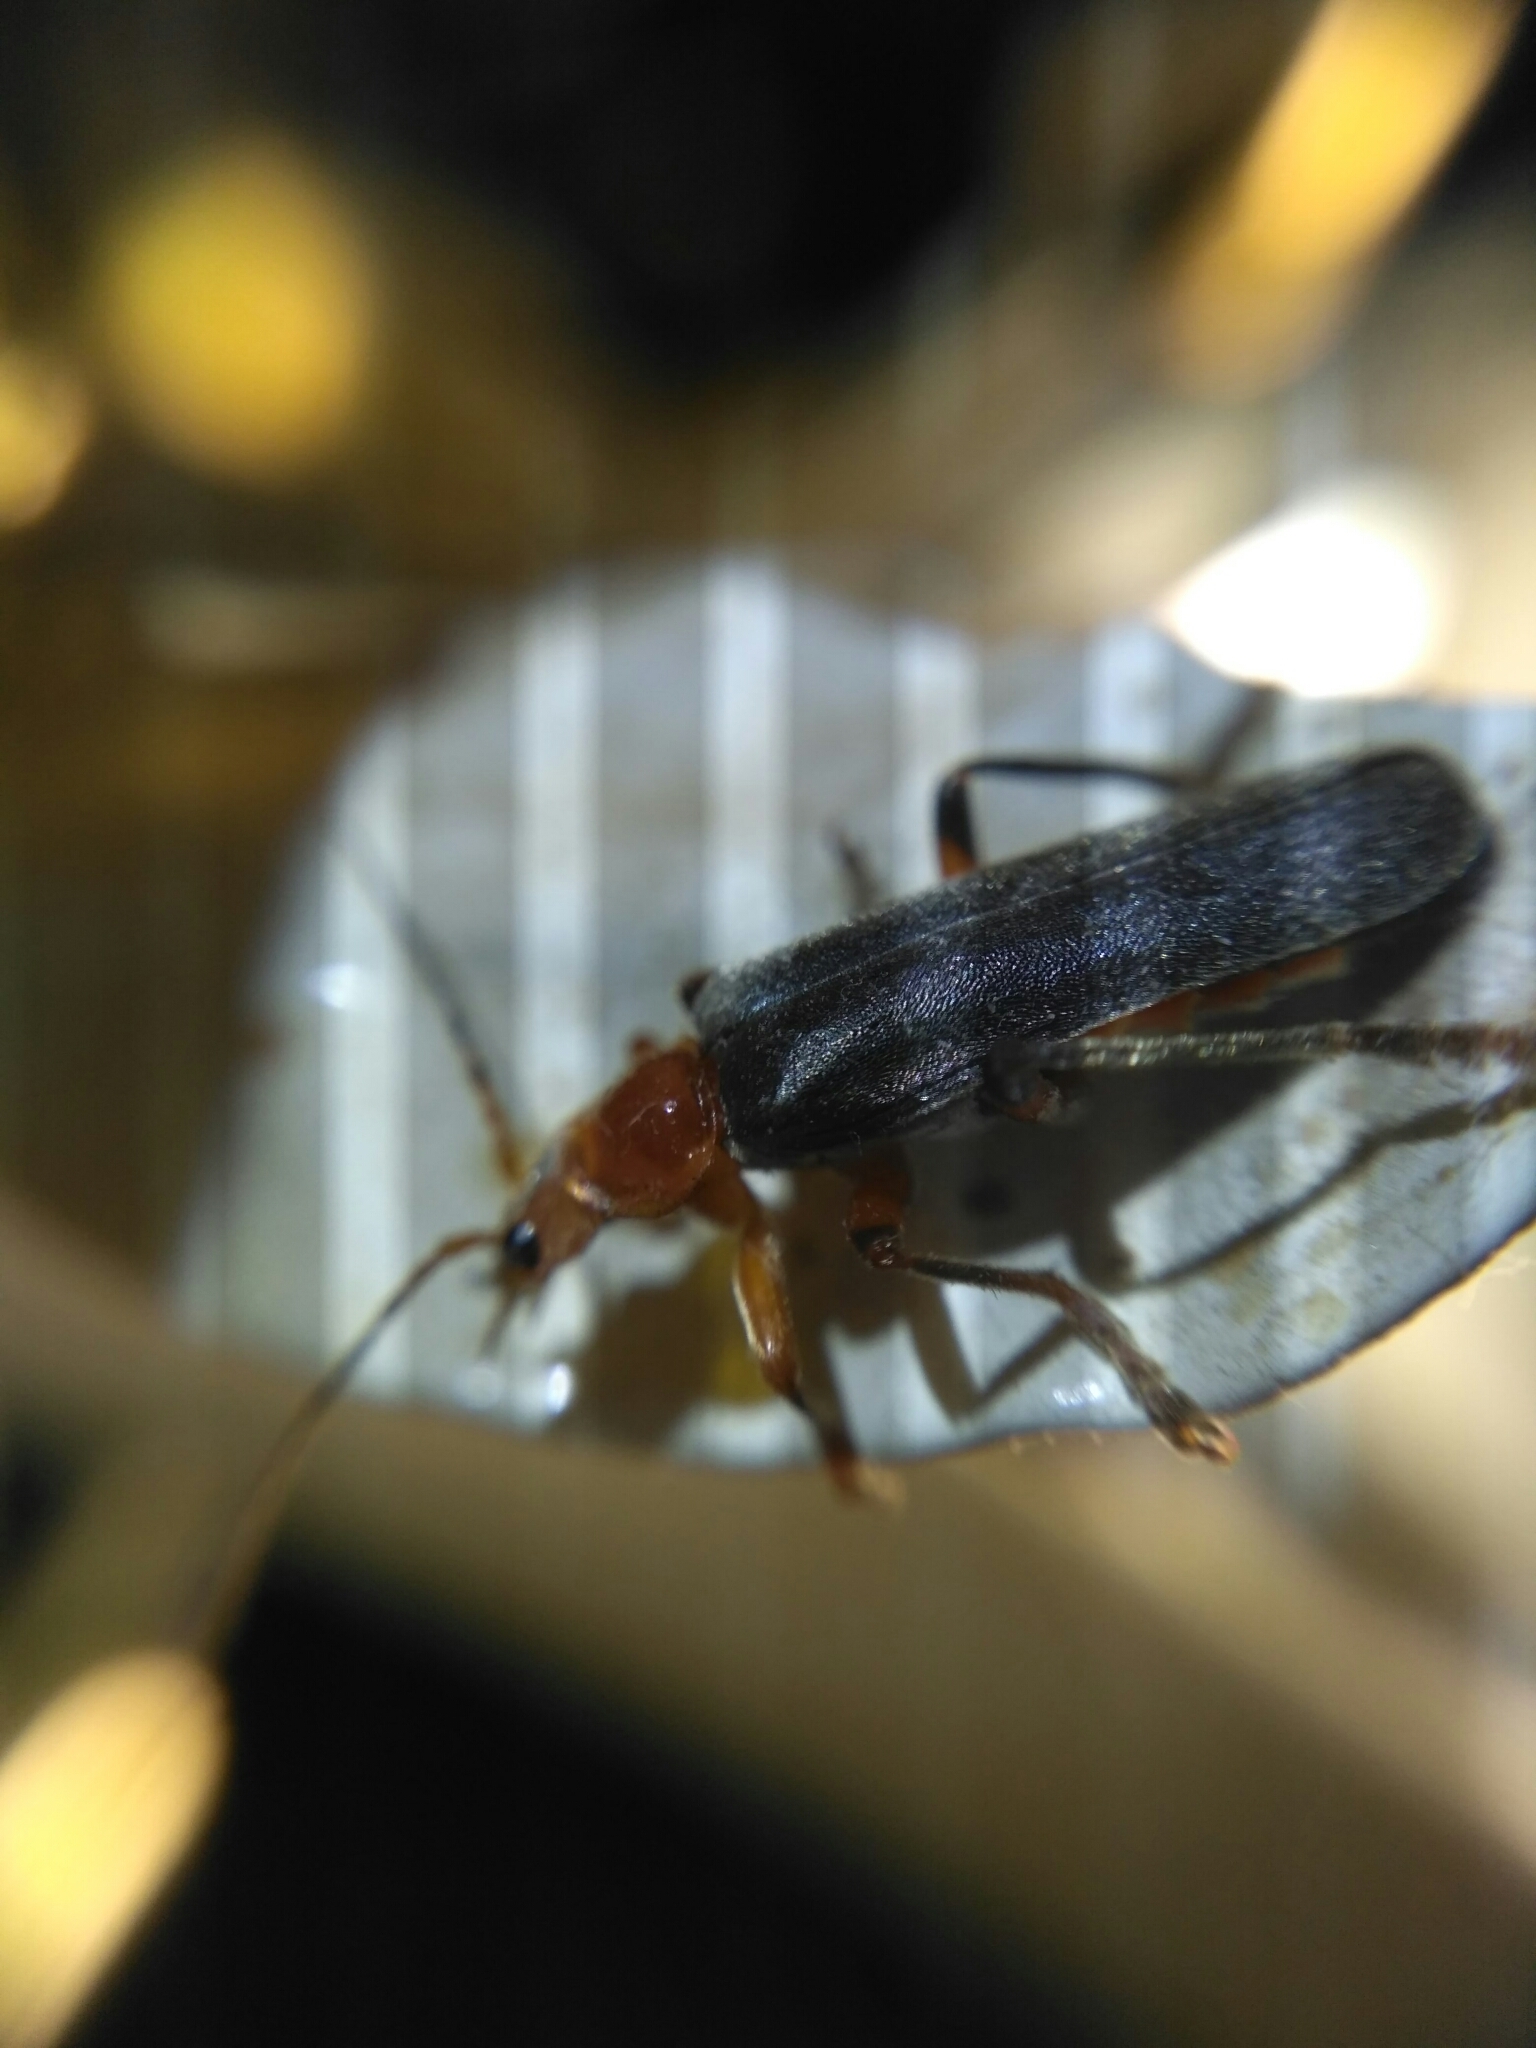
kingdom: Animalia
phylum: Arthropoda
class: Insecta
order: Coleoptera
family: Cantharidae
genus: Cantharis
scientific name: Cantharis livida
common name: Livid soldier beetle
